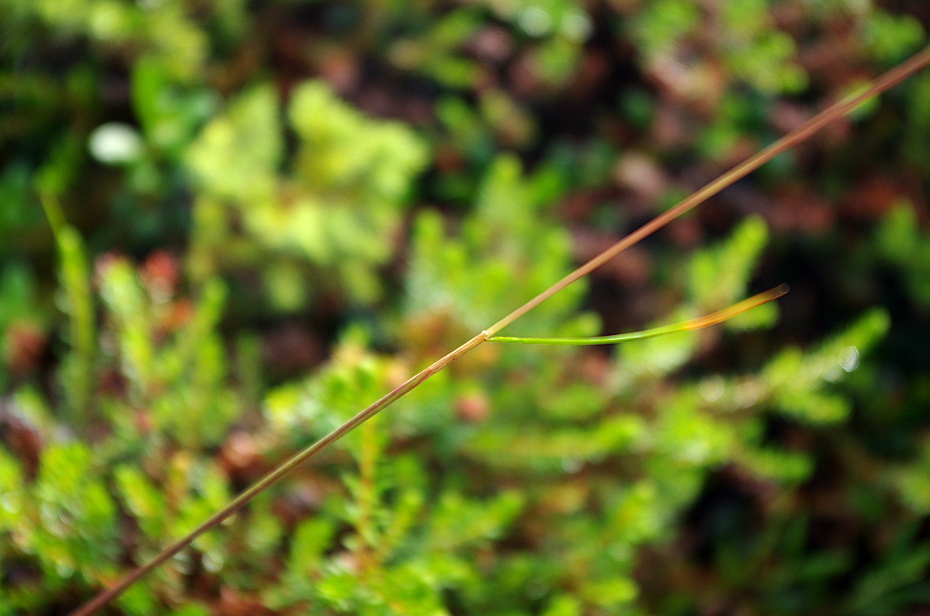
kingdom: Plantae
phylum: Tracheophyta
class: Liliopsida
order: Poales
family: Poaceae
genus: Avenella
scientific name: Avenella flexuosa
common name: Wavy hairgrass
